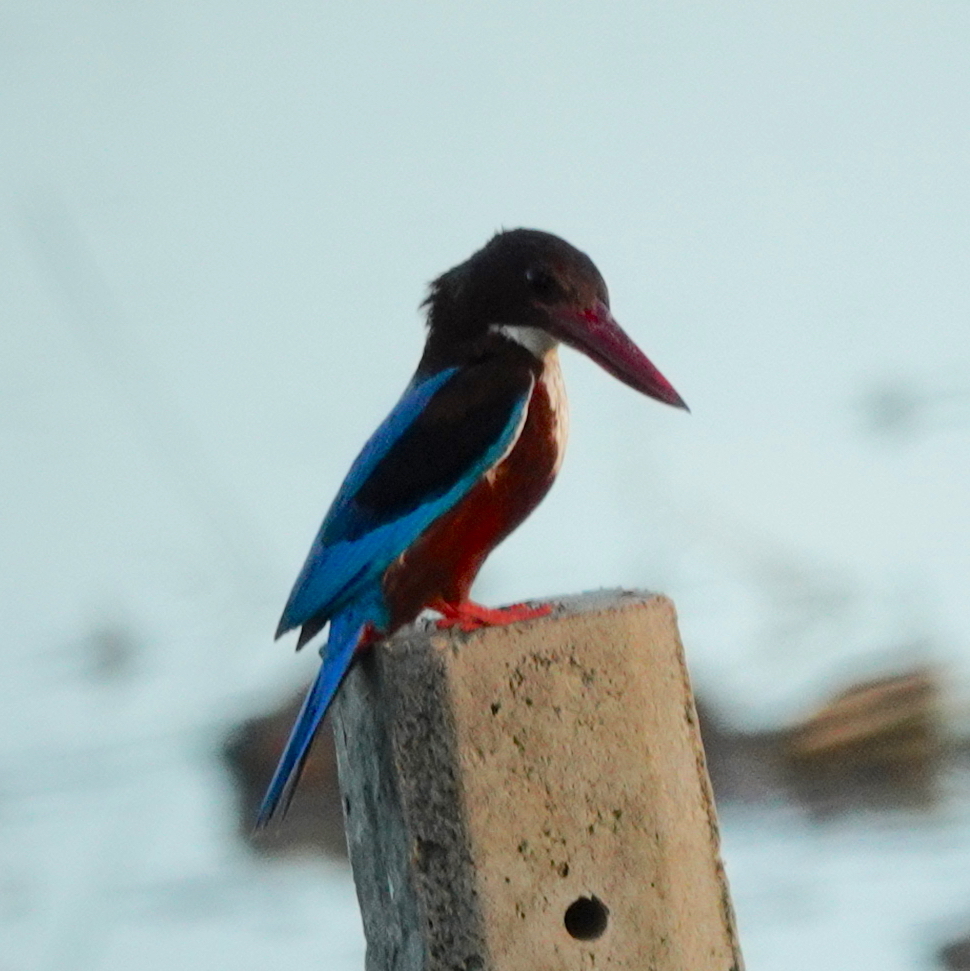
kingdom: Animalia
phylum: Chordata
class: Aves
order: Coraciiformes
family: Alcedinidae
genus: Halcyon
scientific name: Halcyon smyrnensis
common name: White-throated kingfisher
